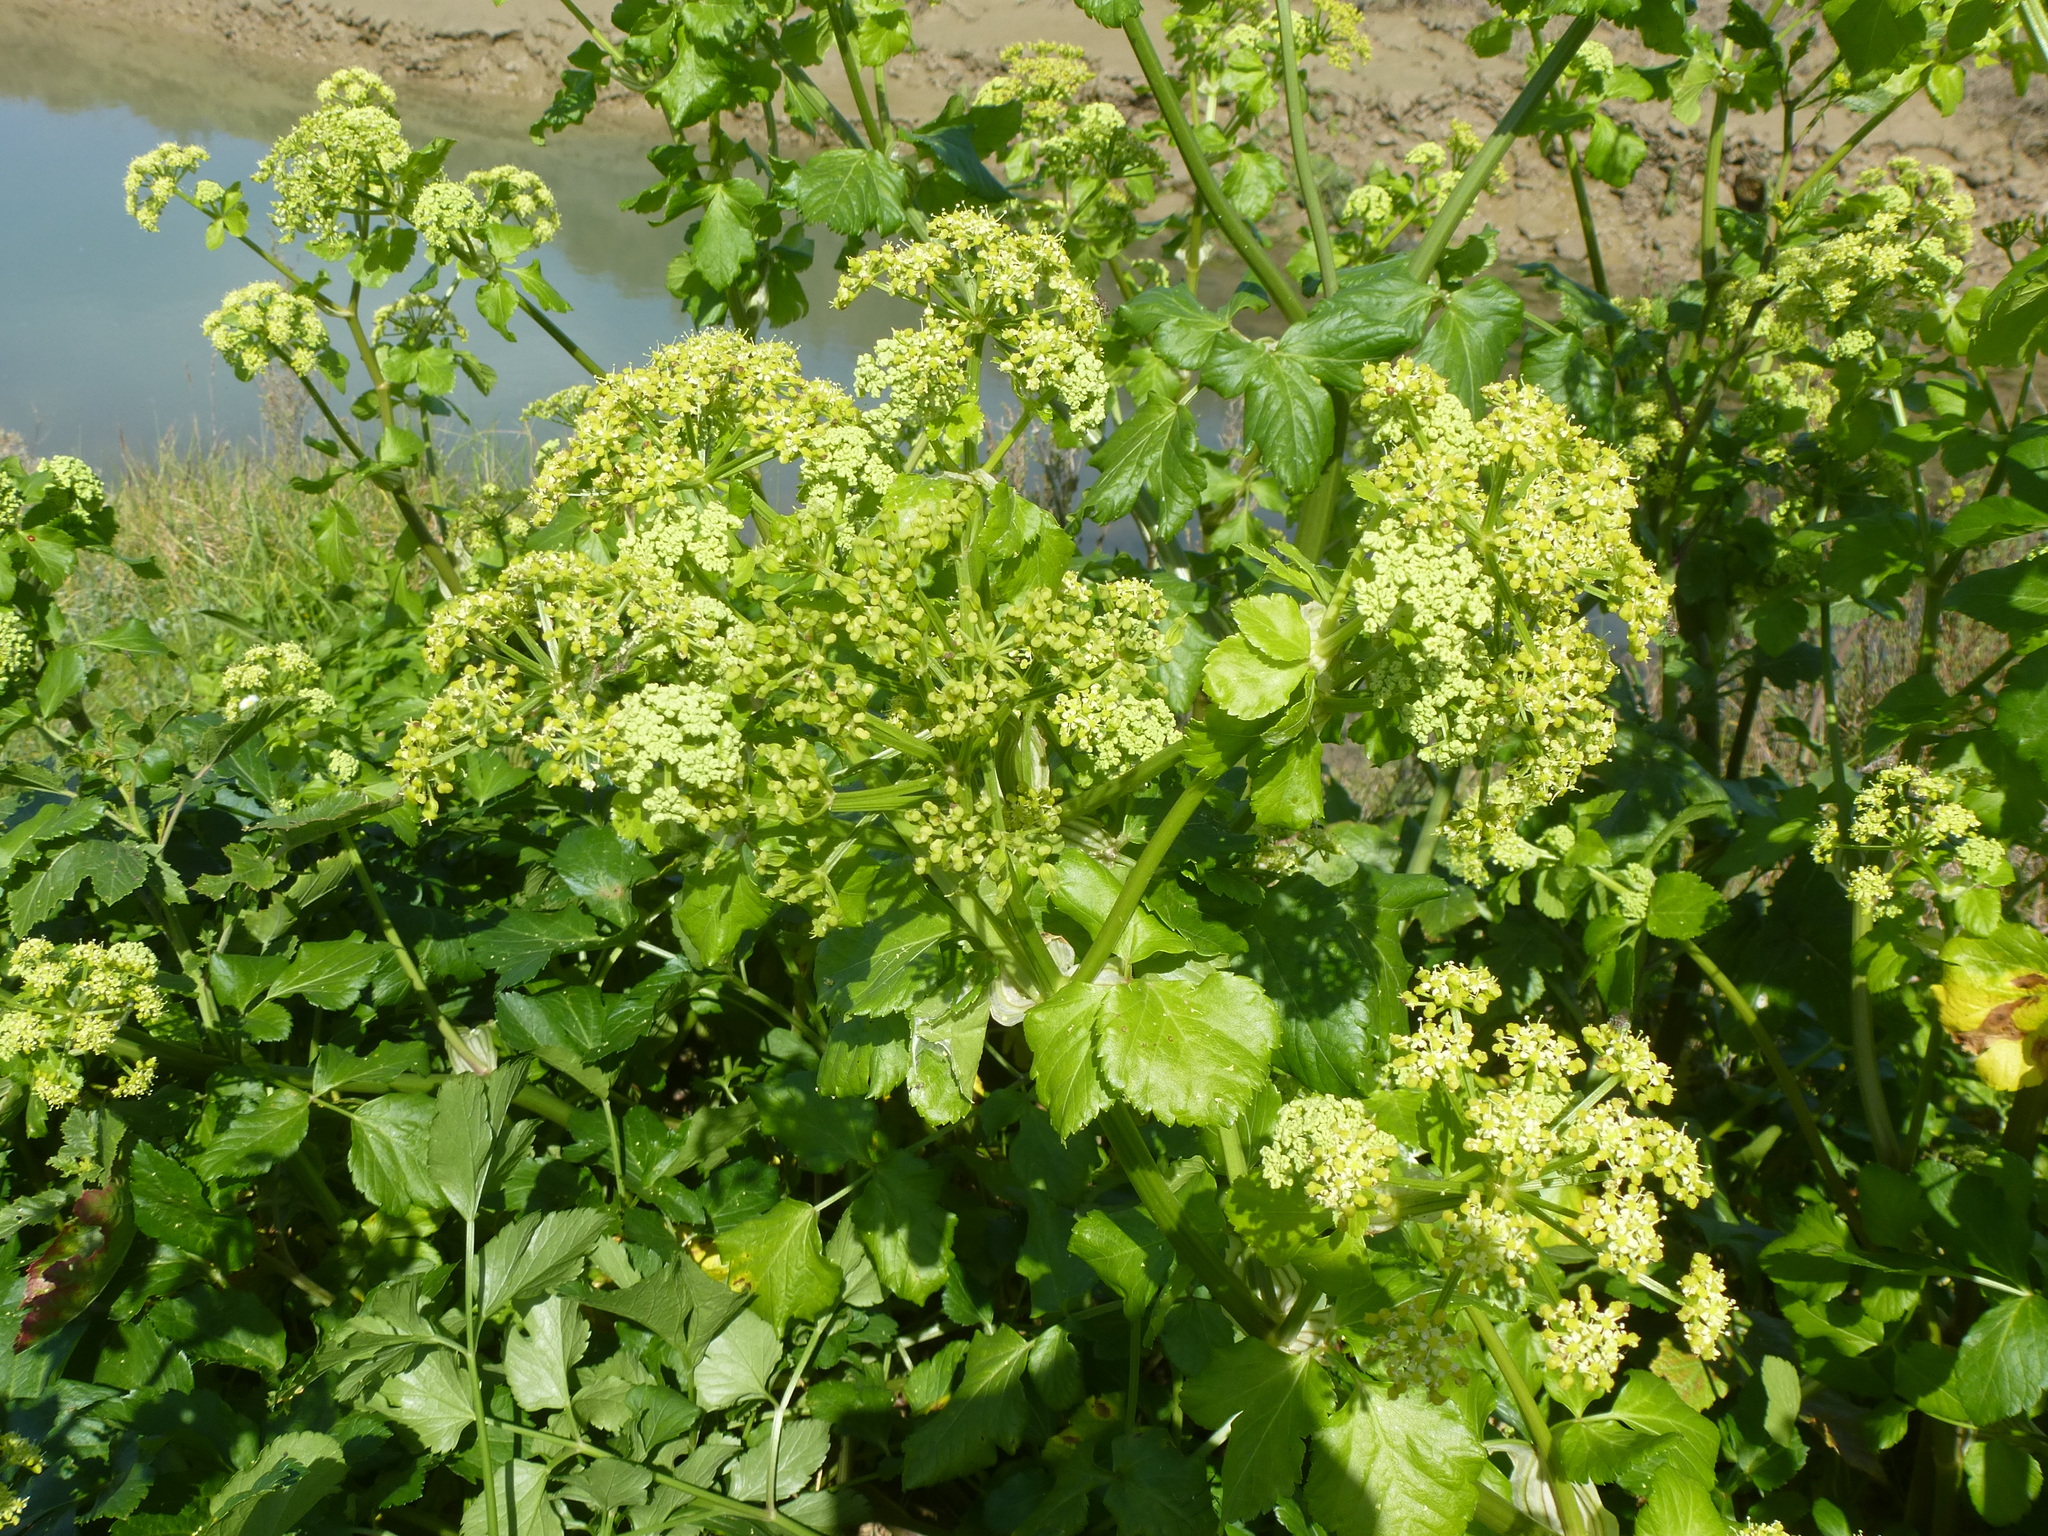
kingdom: Plantae
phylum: Tracheophyta
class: Magnoliopsida
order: Apiales
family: Apiaceae
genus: Smyrnium
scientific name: Smyrnium olusatrum
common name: Alexanders
